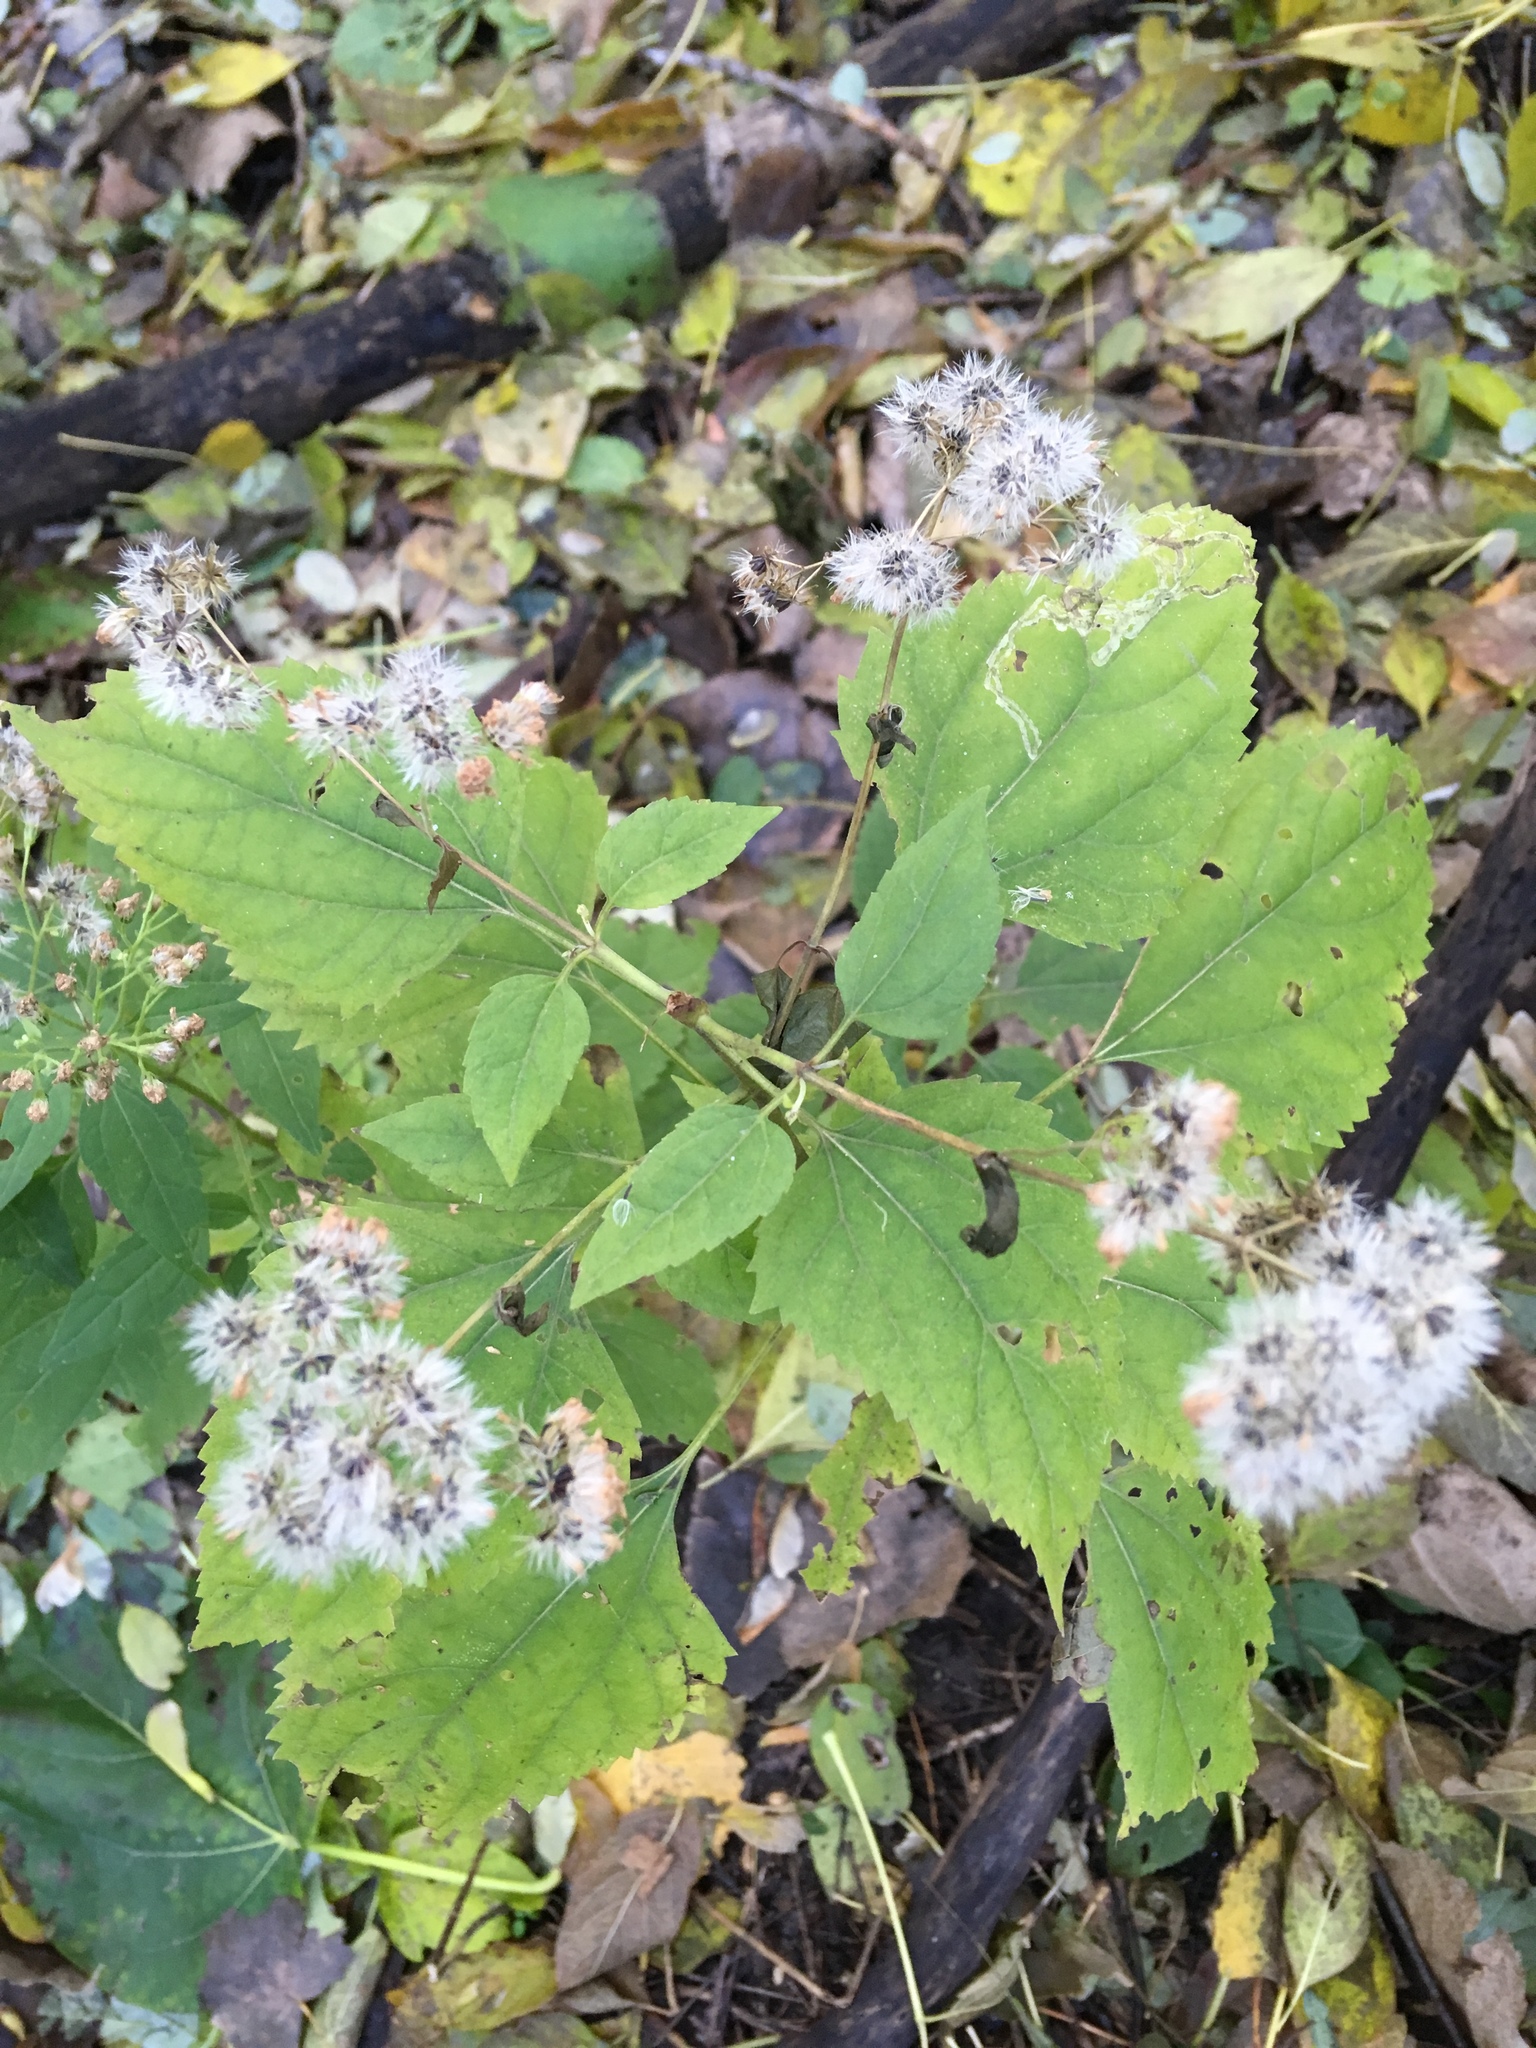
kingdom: Plantae
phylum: Tracheophyta
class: Magnoliopsida
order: Asterales
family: Asteraceae
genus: Ageratina
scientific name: Ageratina altissima
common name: White snakeroot
